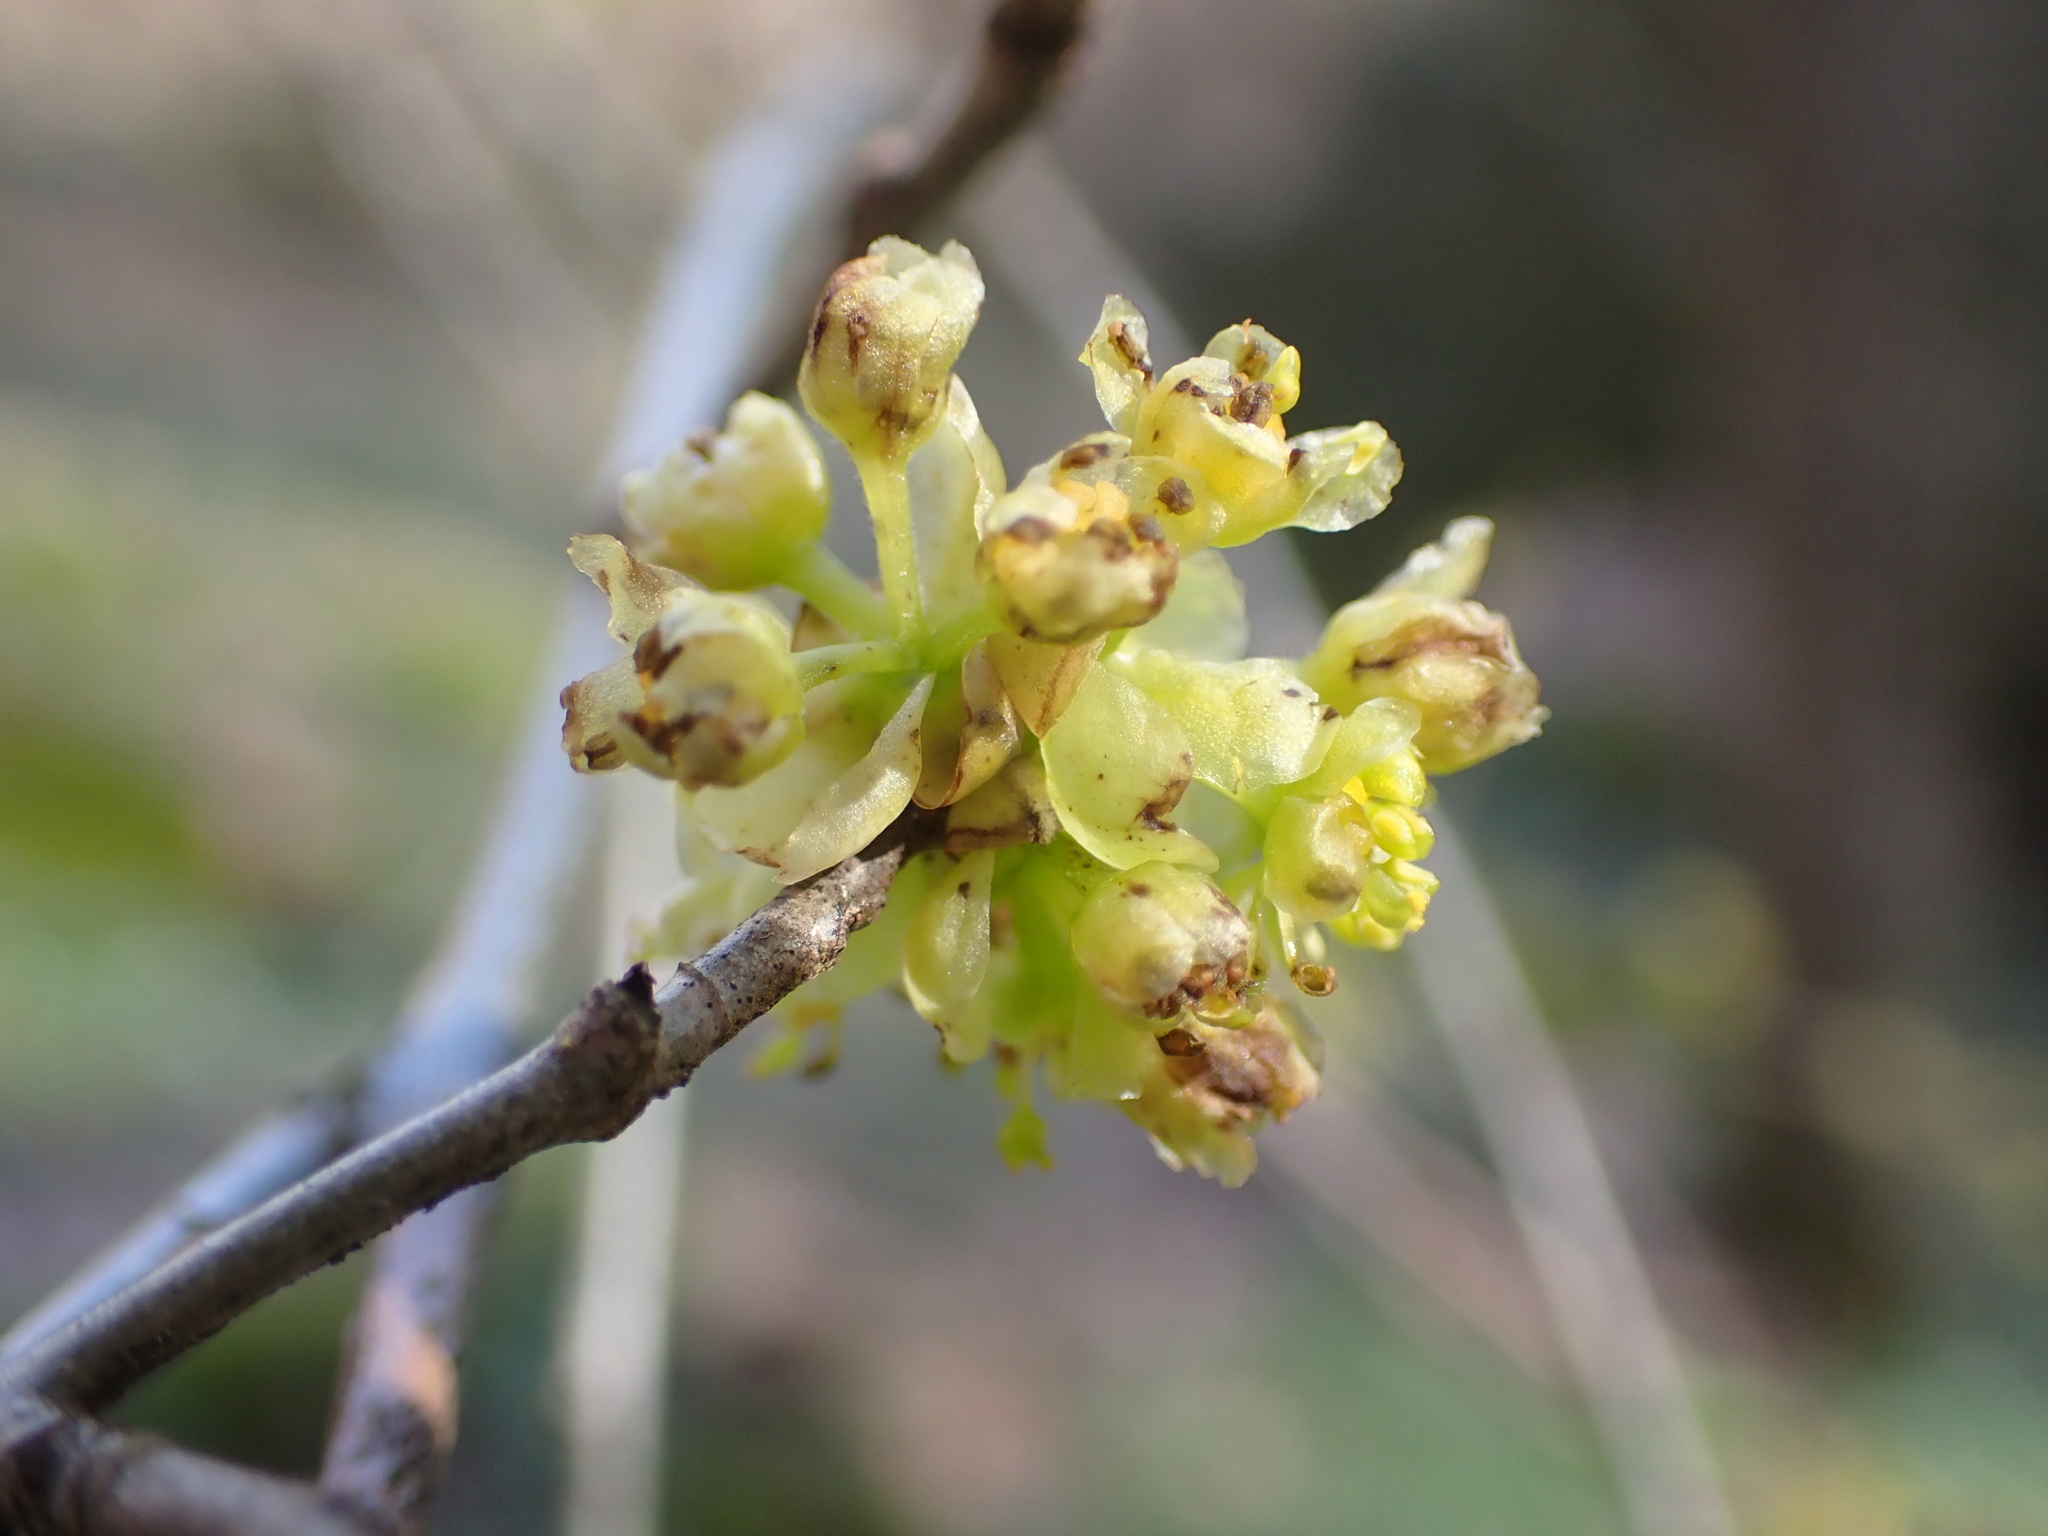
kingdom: Plantae
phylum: Tracheophyta
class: Magnoliopsida
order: Laurales
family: Lauraceae
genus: Lindera
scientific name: Lindera benzoin
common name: Spicebush
